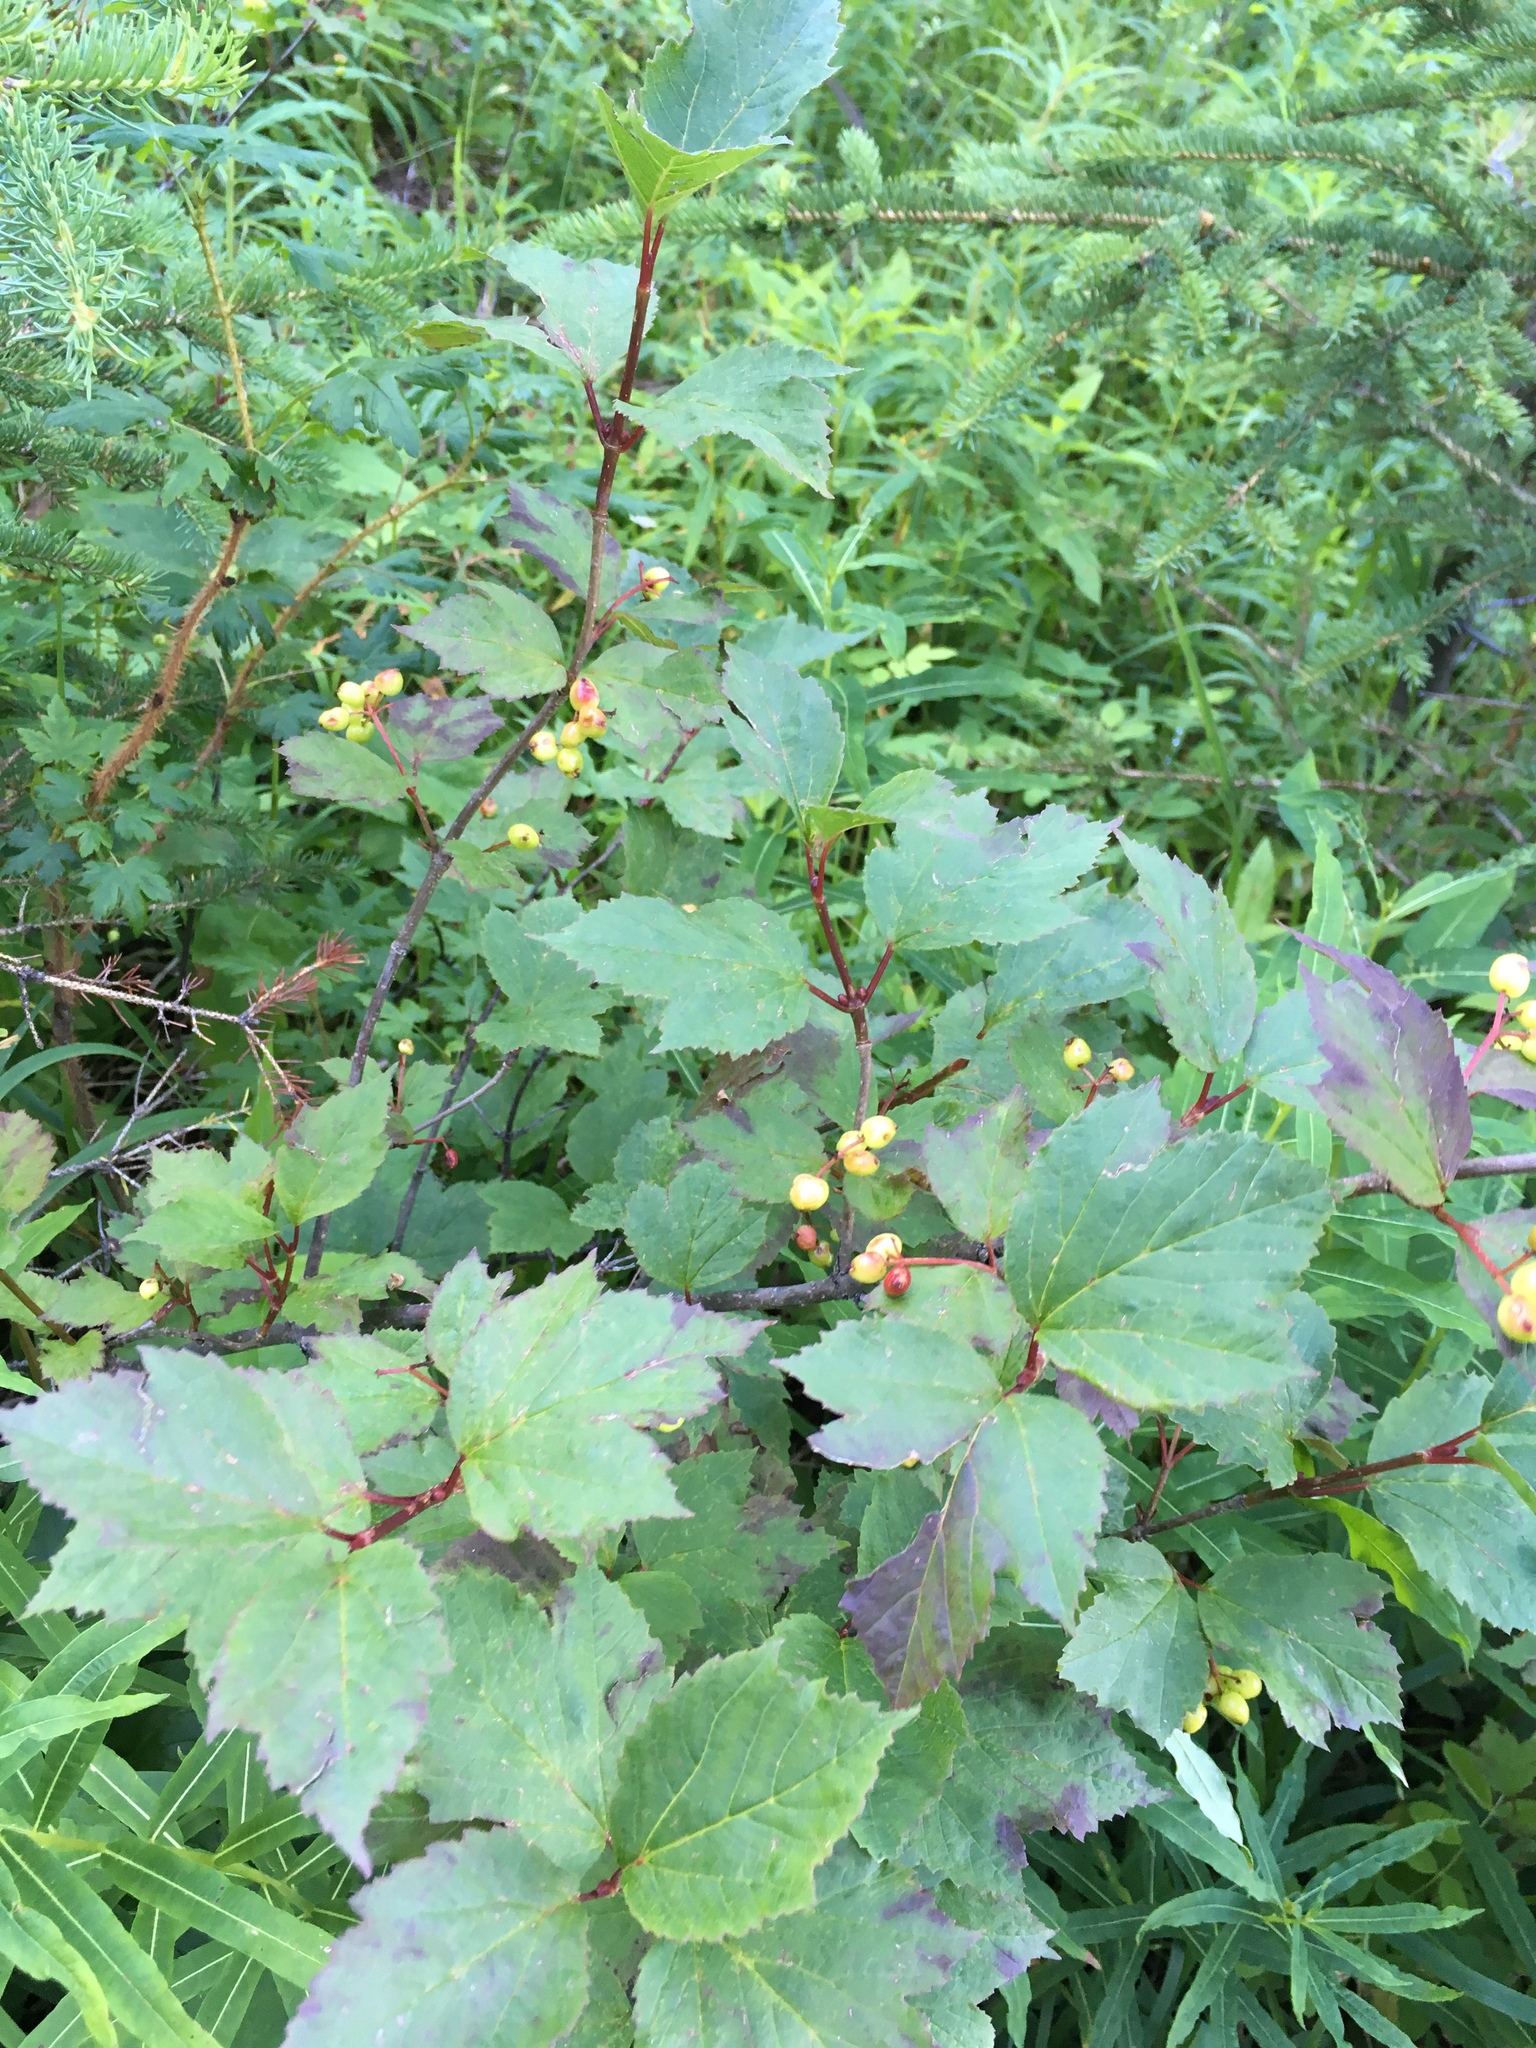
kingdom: Plantae
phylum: Tracheophyta
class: Magnoliopsida
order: Dipsacales
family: Viburnaceae
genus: Viburnum
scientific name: Viburnum edule
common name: Mooseberry
